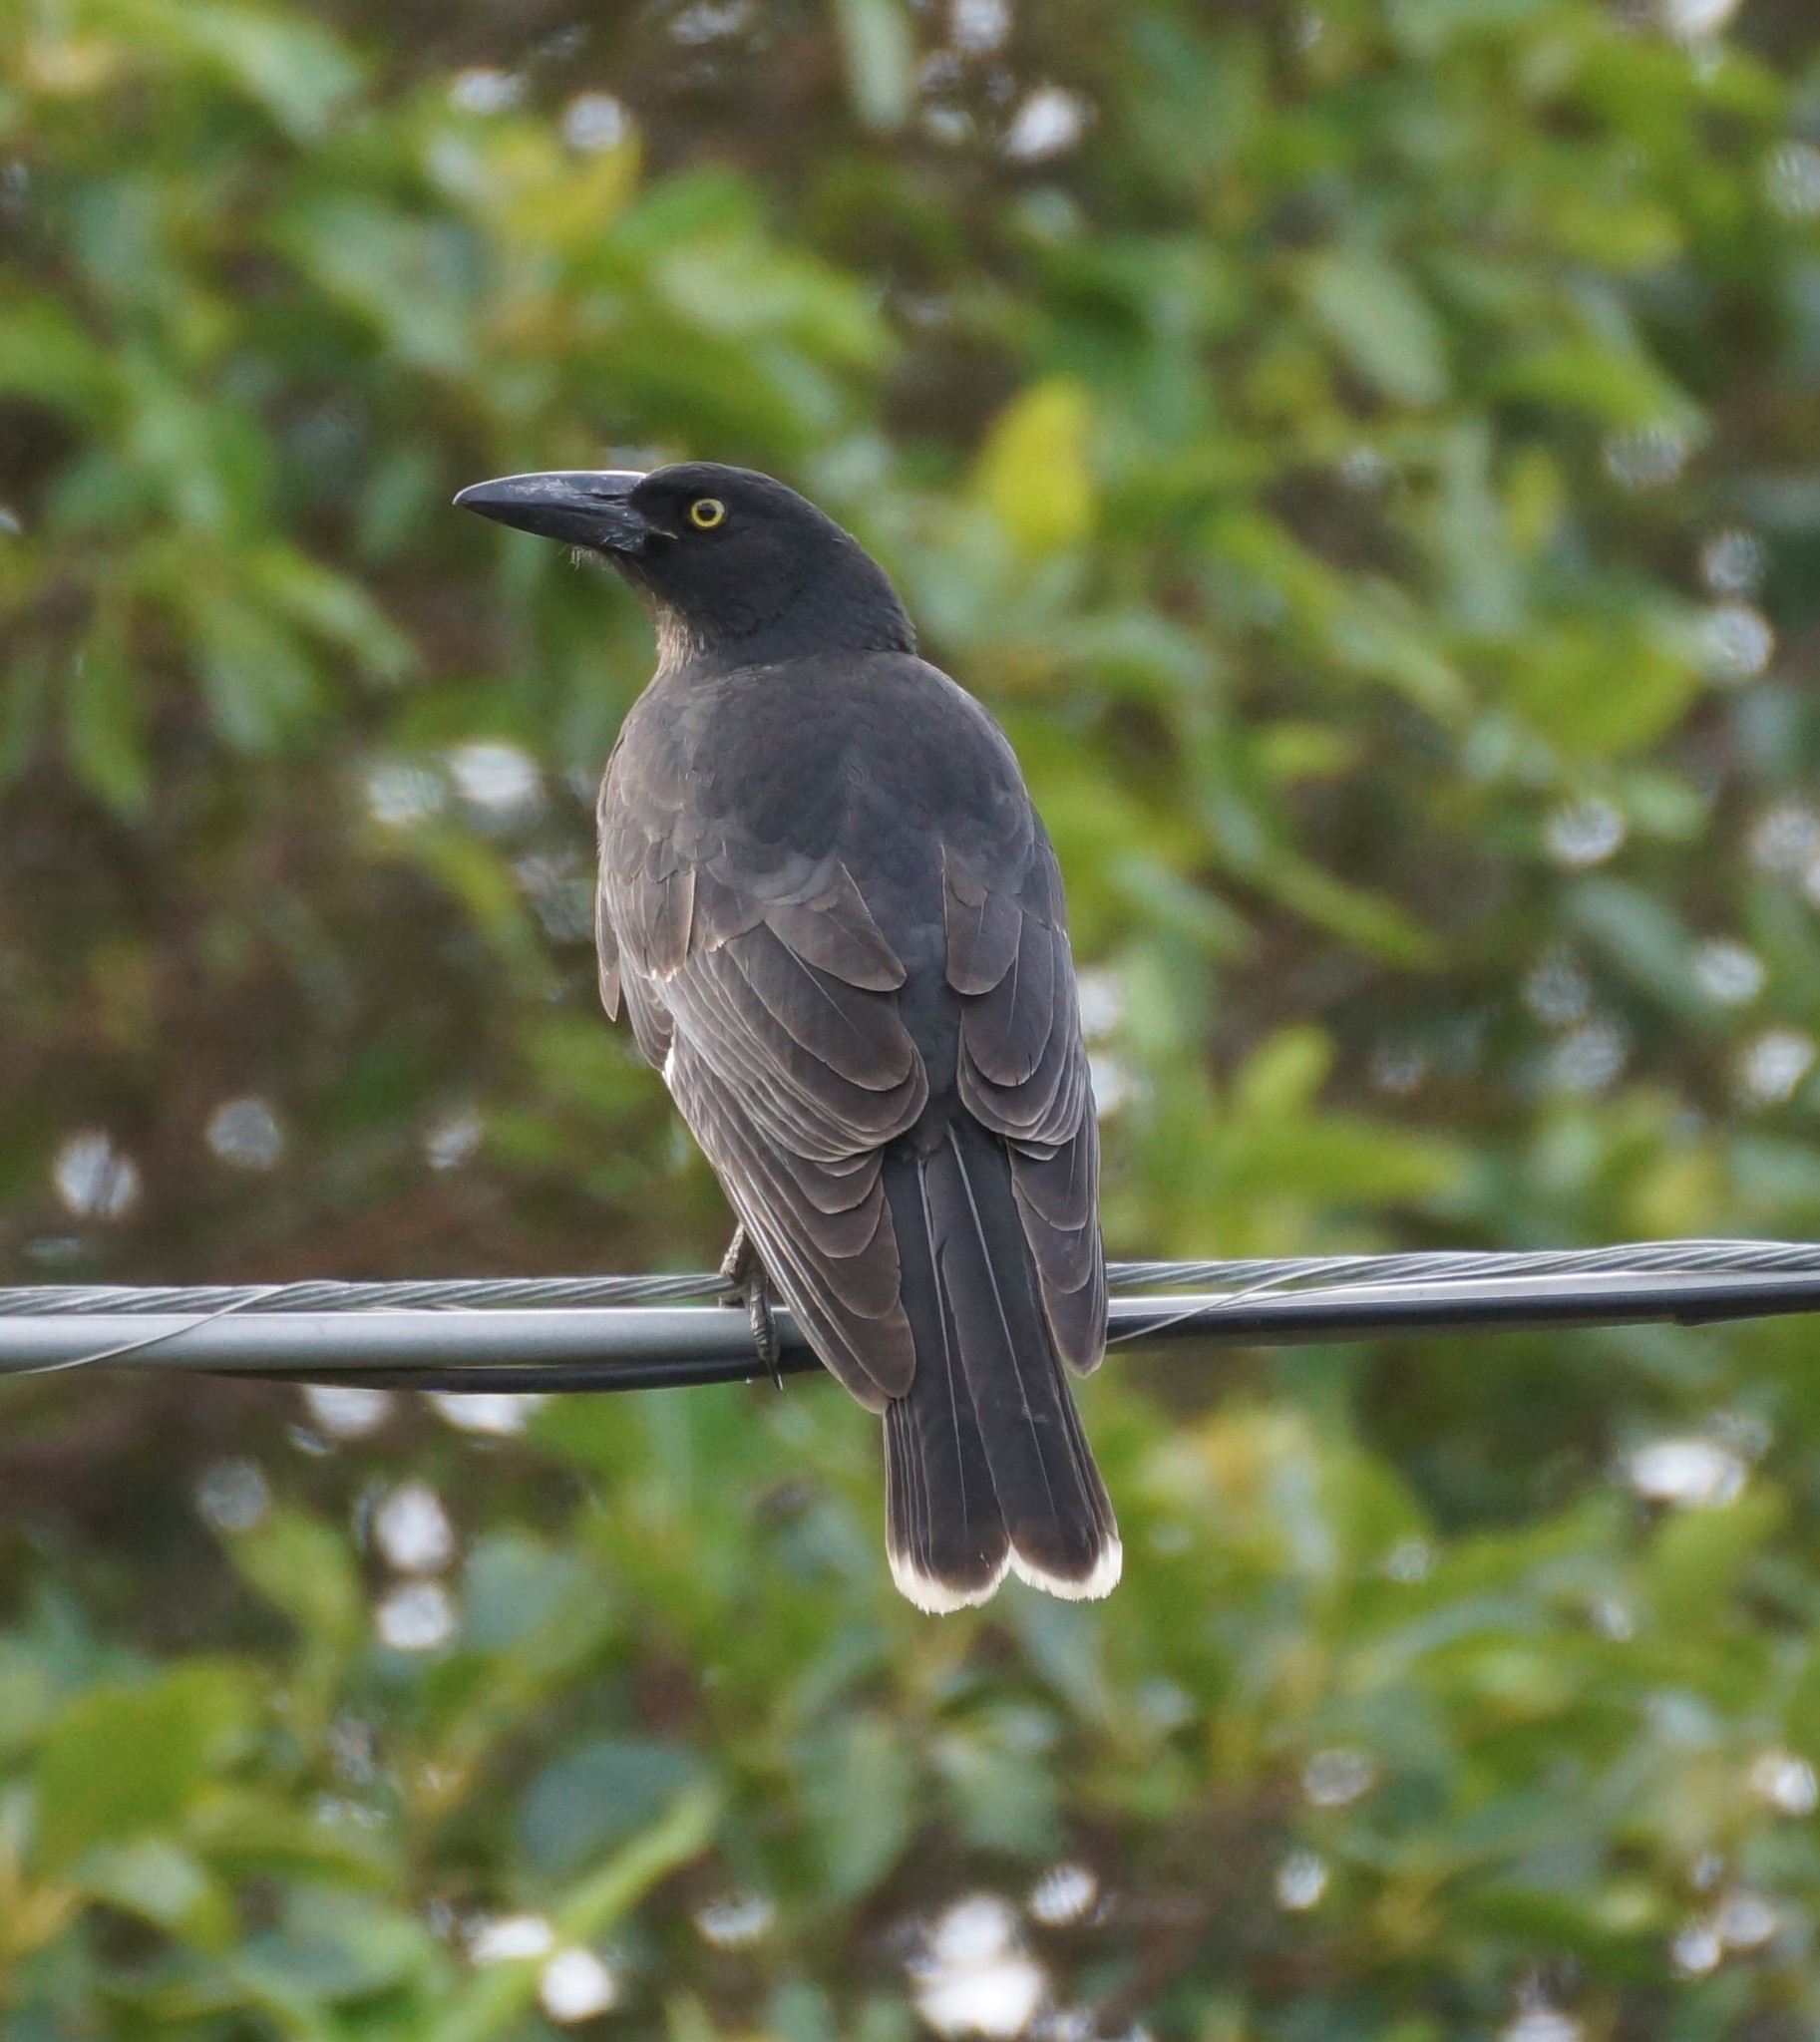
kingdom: Animalia
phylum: Chordata
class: Aves
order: Passeriformes
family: Cracticidae
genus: Strepera
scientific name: Strepera graculina
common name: Pied currawong
